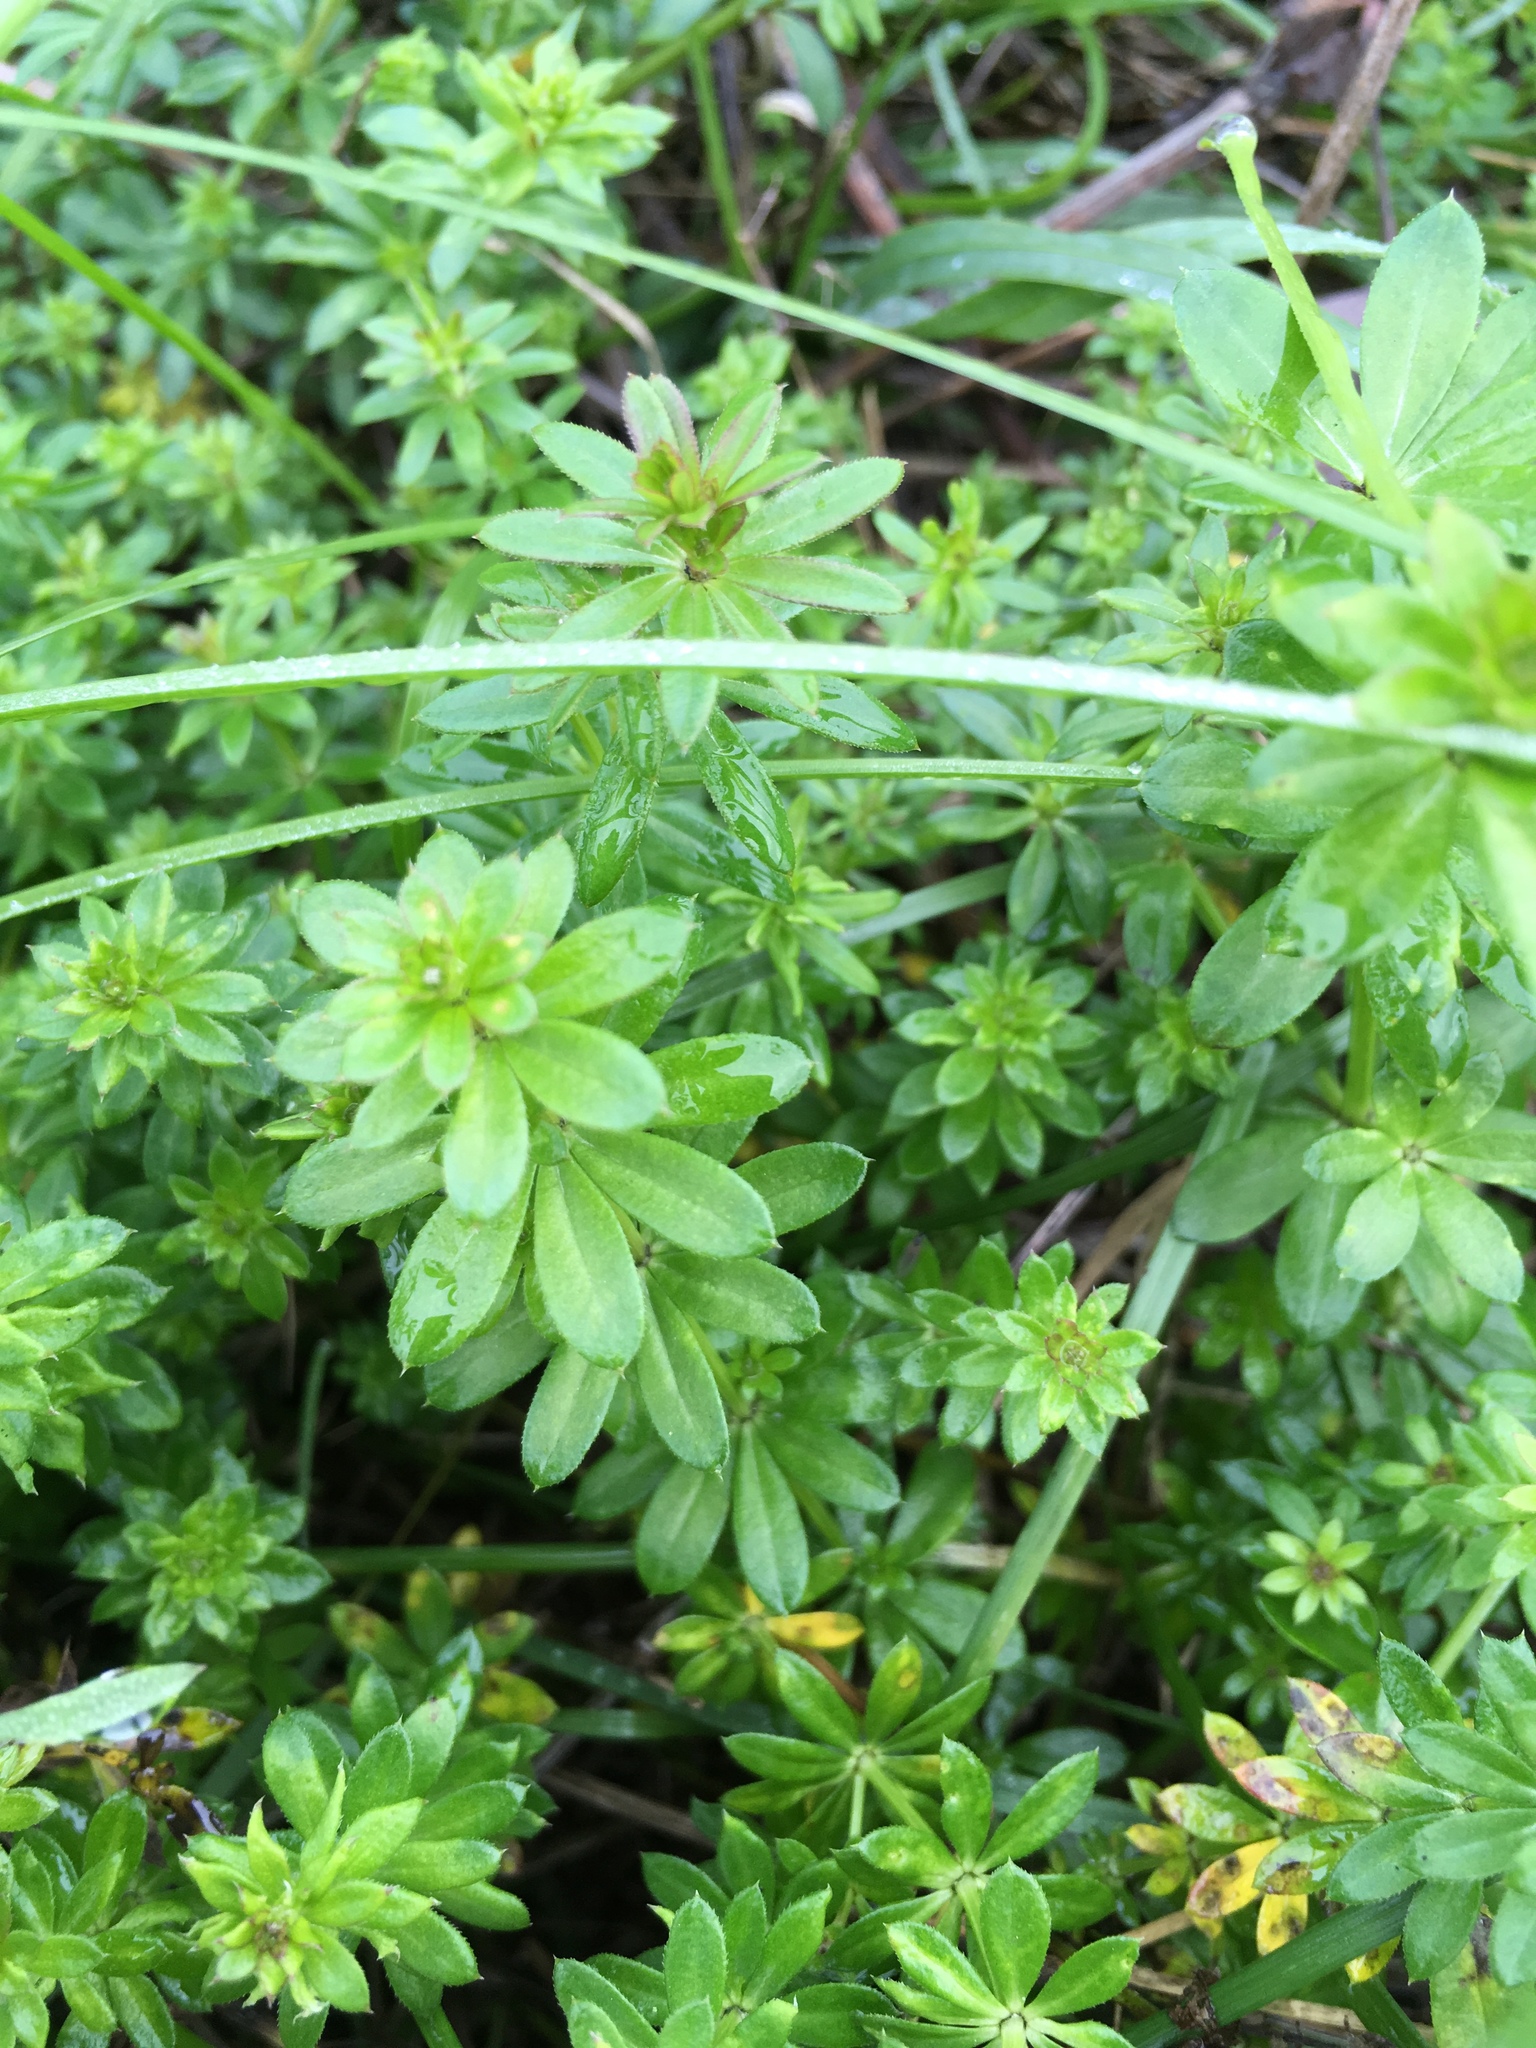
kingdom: Plantae
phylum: Tracheophyta
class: Magnoliopsida
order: Gentianales
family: Rubiaceae
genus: Galium
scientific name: Galium mollugo
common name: Hedge bedstraw
